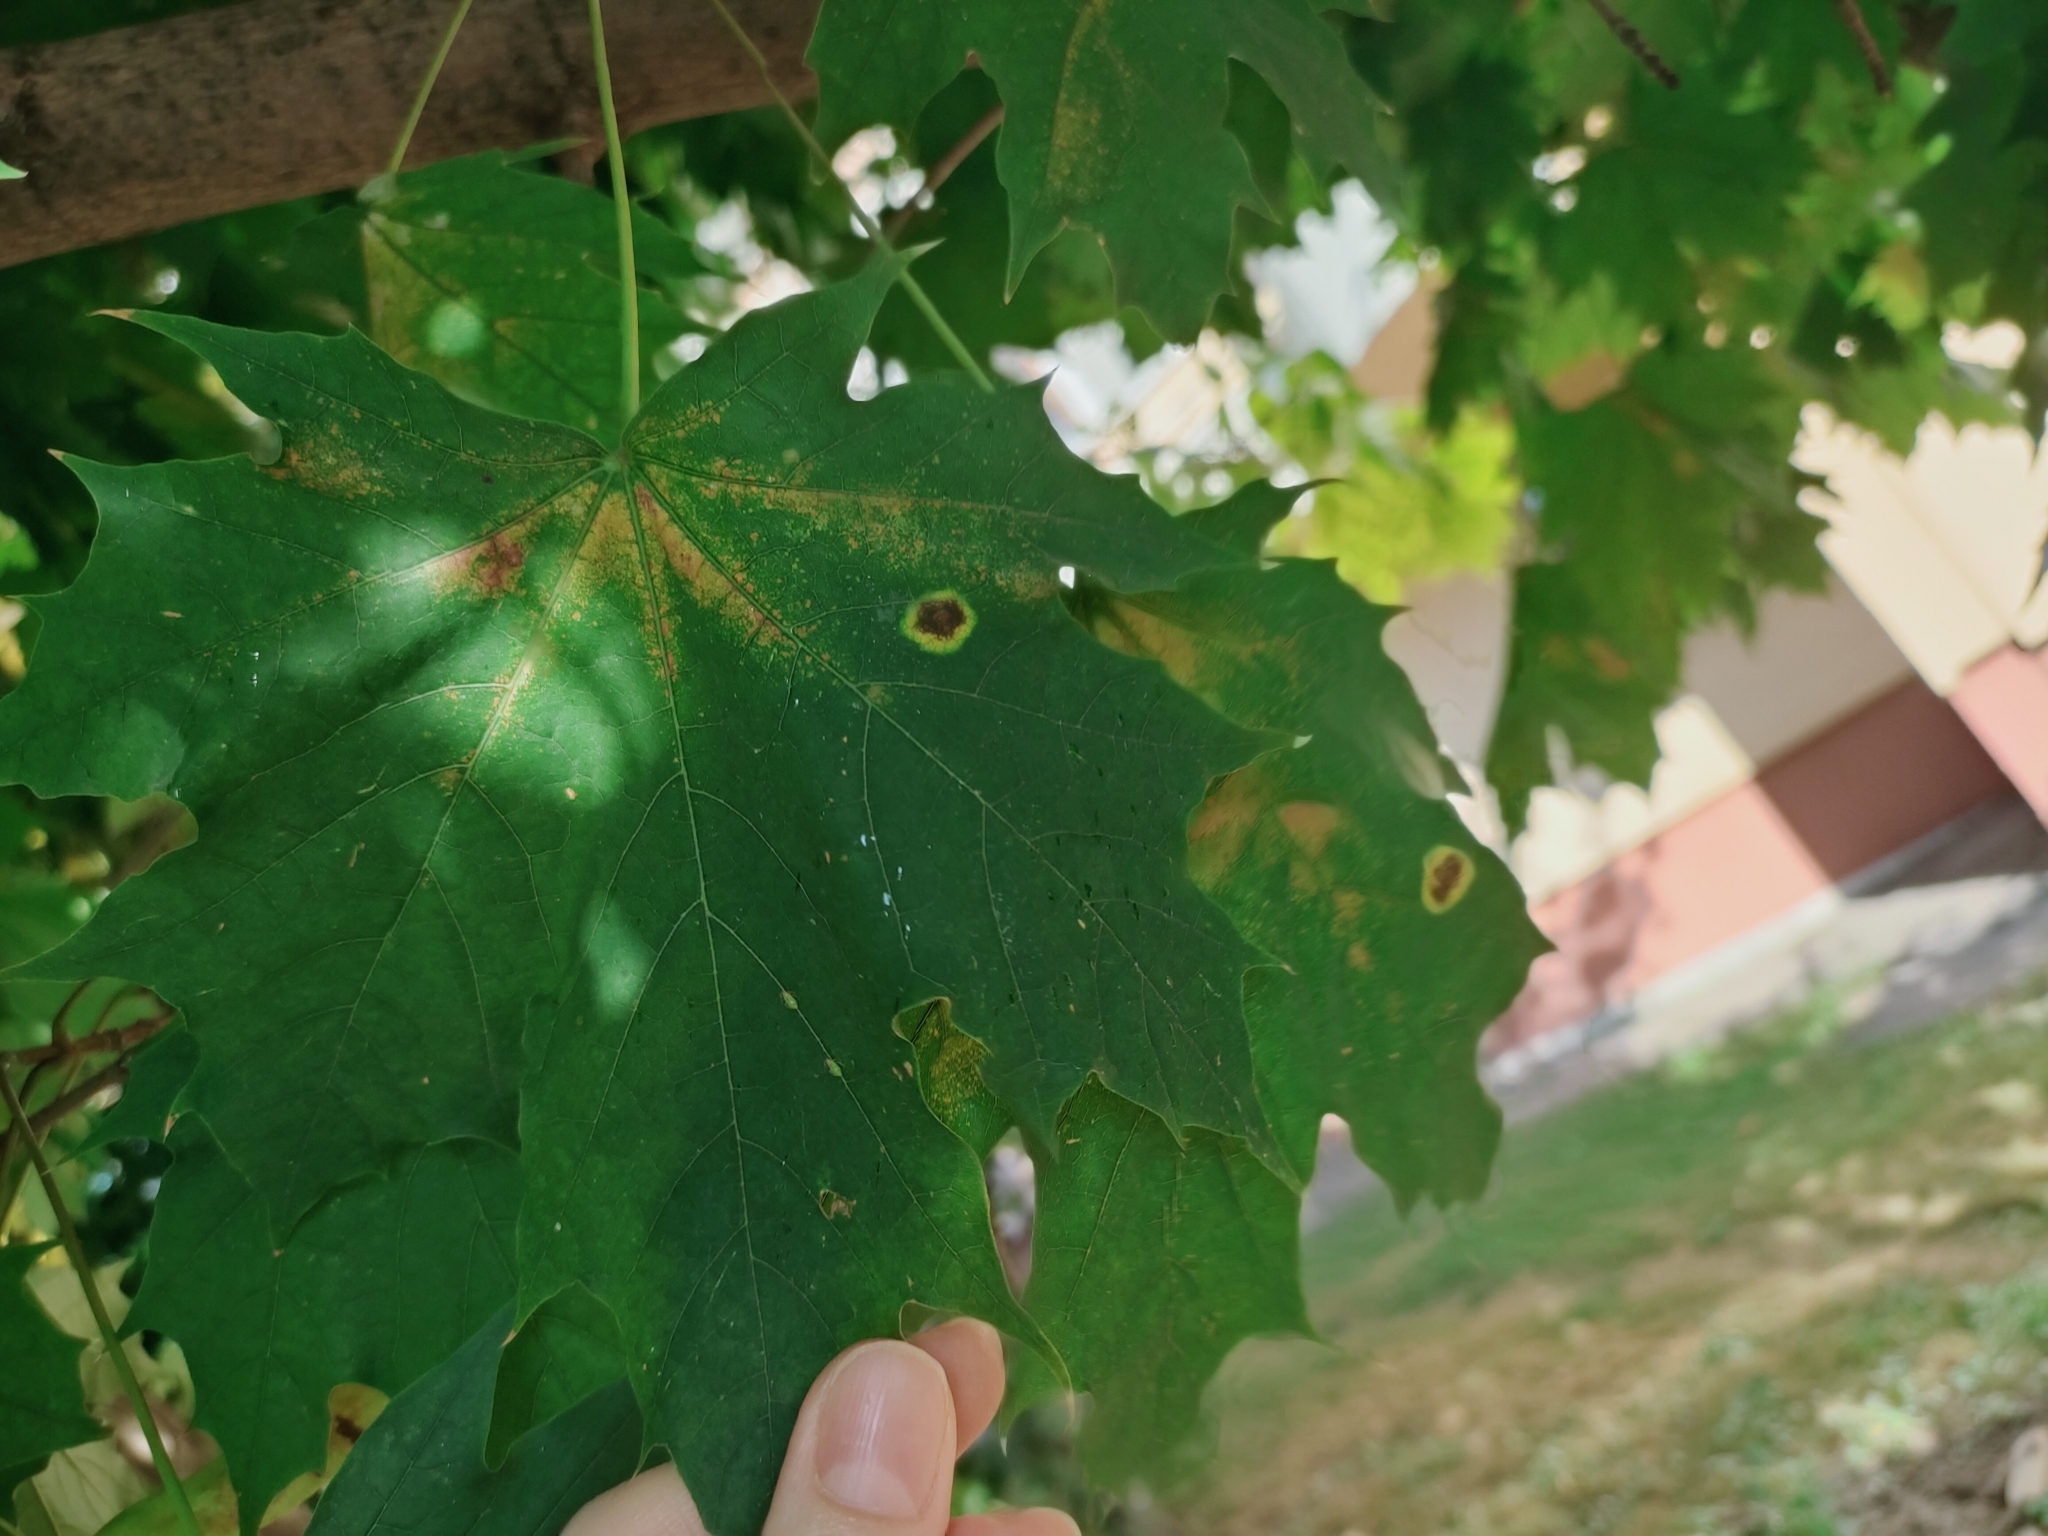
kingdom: Fungi
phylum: Ascomycota
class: Leotiomycetes
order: Rhytismatales
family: Rhytismataceae
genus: Rhytisma
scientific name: Rhytisma acerinum
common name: European tar spot
